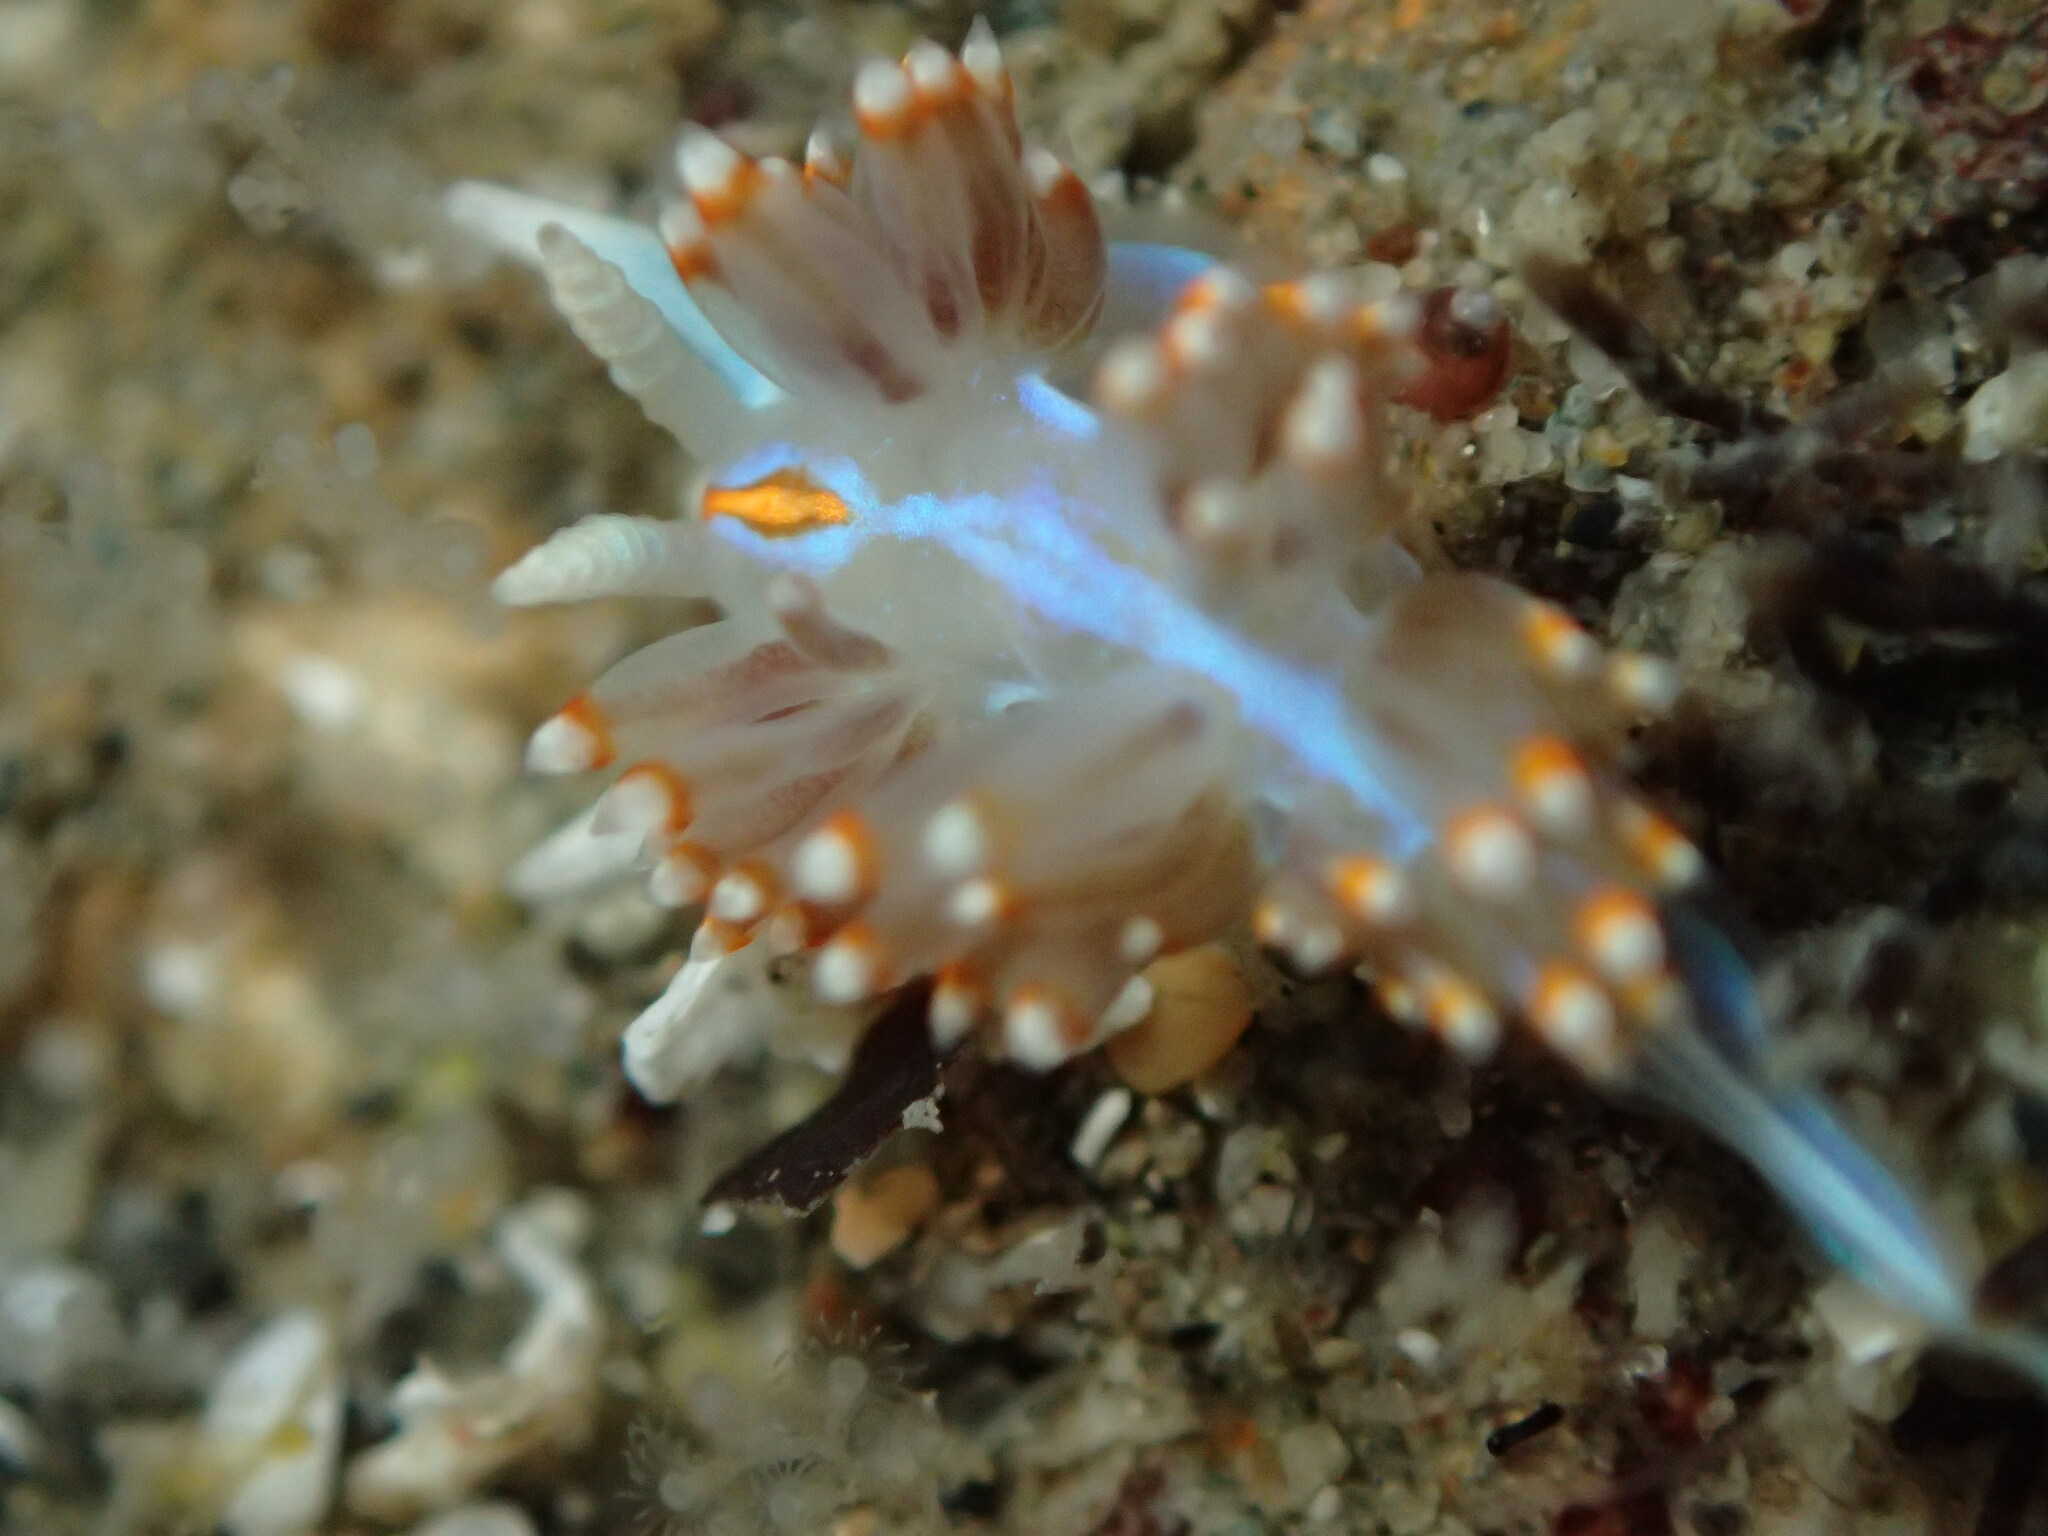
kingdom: Animalia
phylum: Mollusca
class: Gastropoda
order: Nudibranchia
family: Myrrhinidae
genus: Hermissenda
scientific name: Hermissenda opalescens
